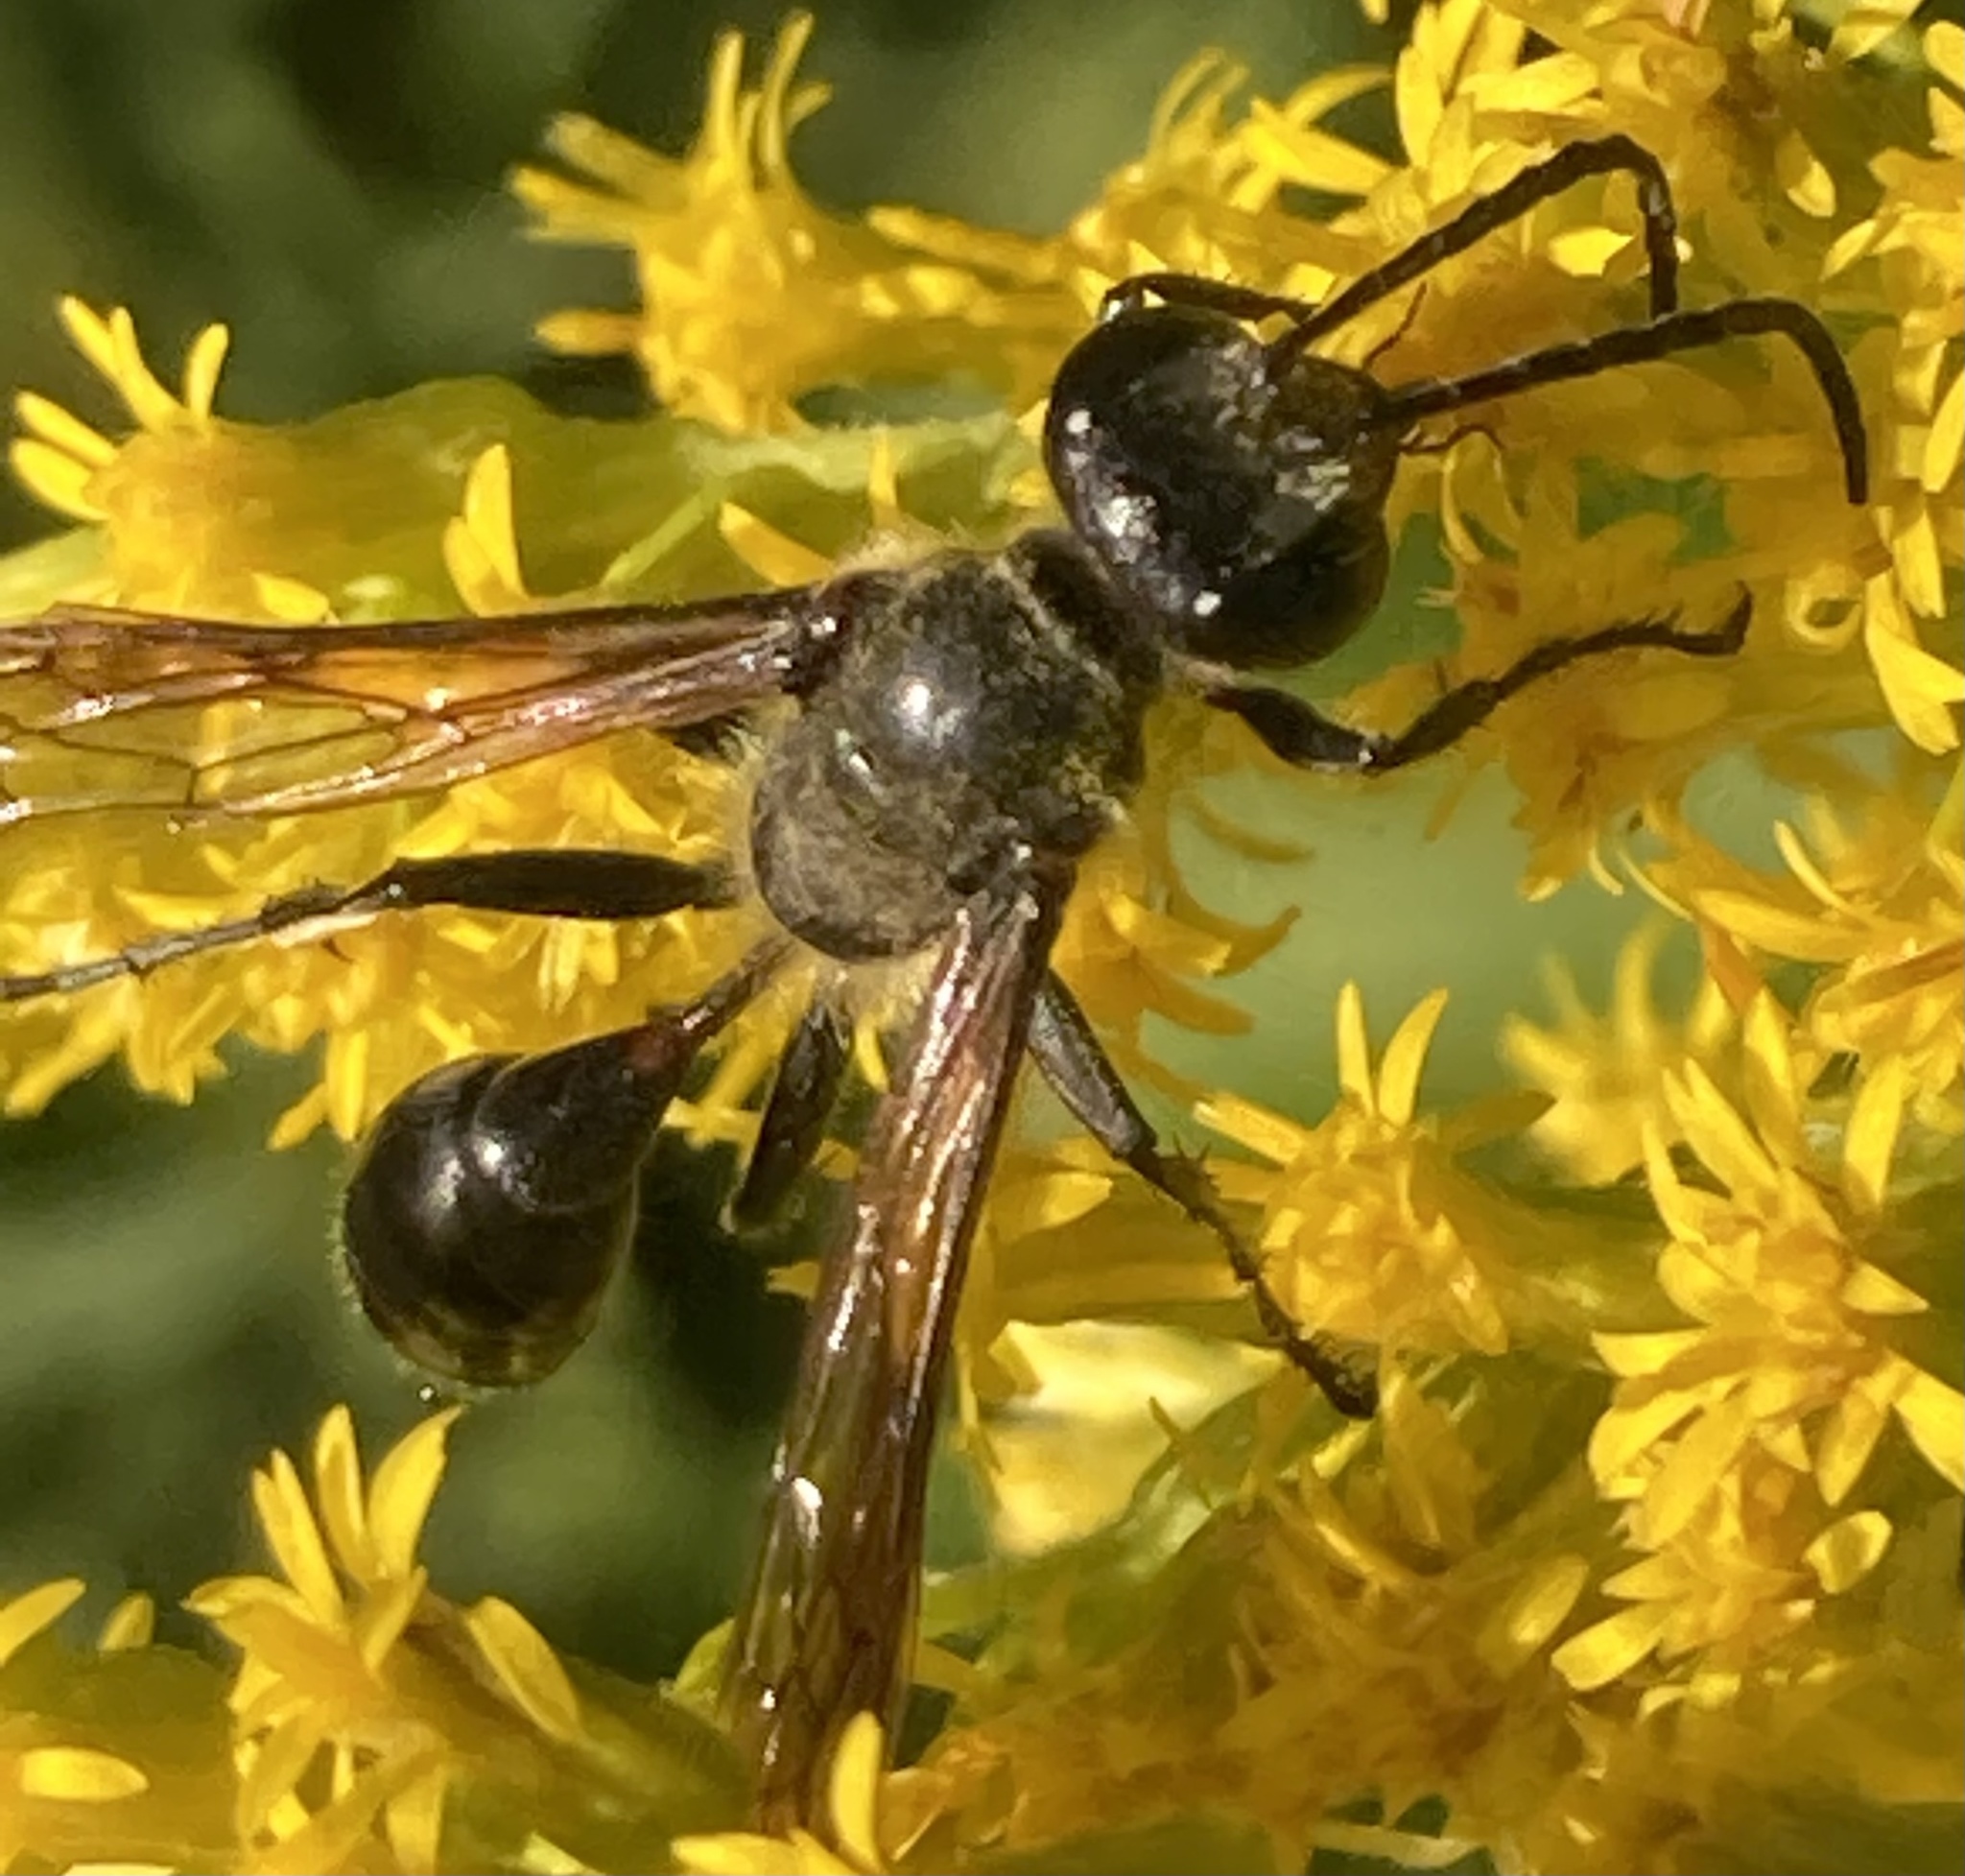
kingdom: Animalia
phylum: Arthropoda
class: Insecta
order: Hymenoptera
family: Sphecidae
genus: Isodontia
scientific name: Isodontia mexicana
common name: Mud dauber
